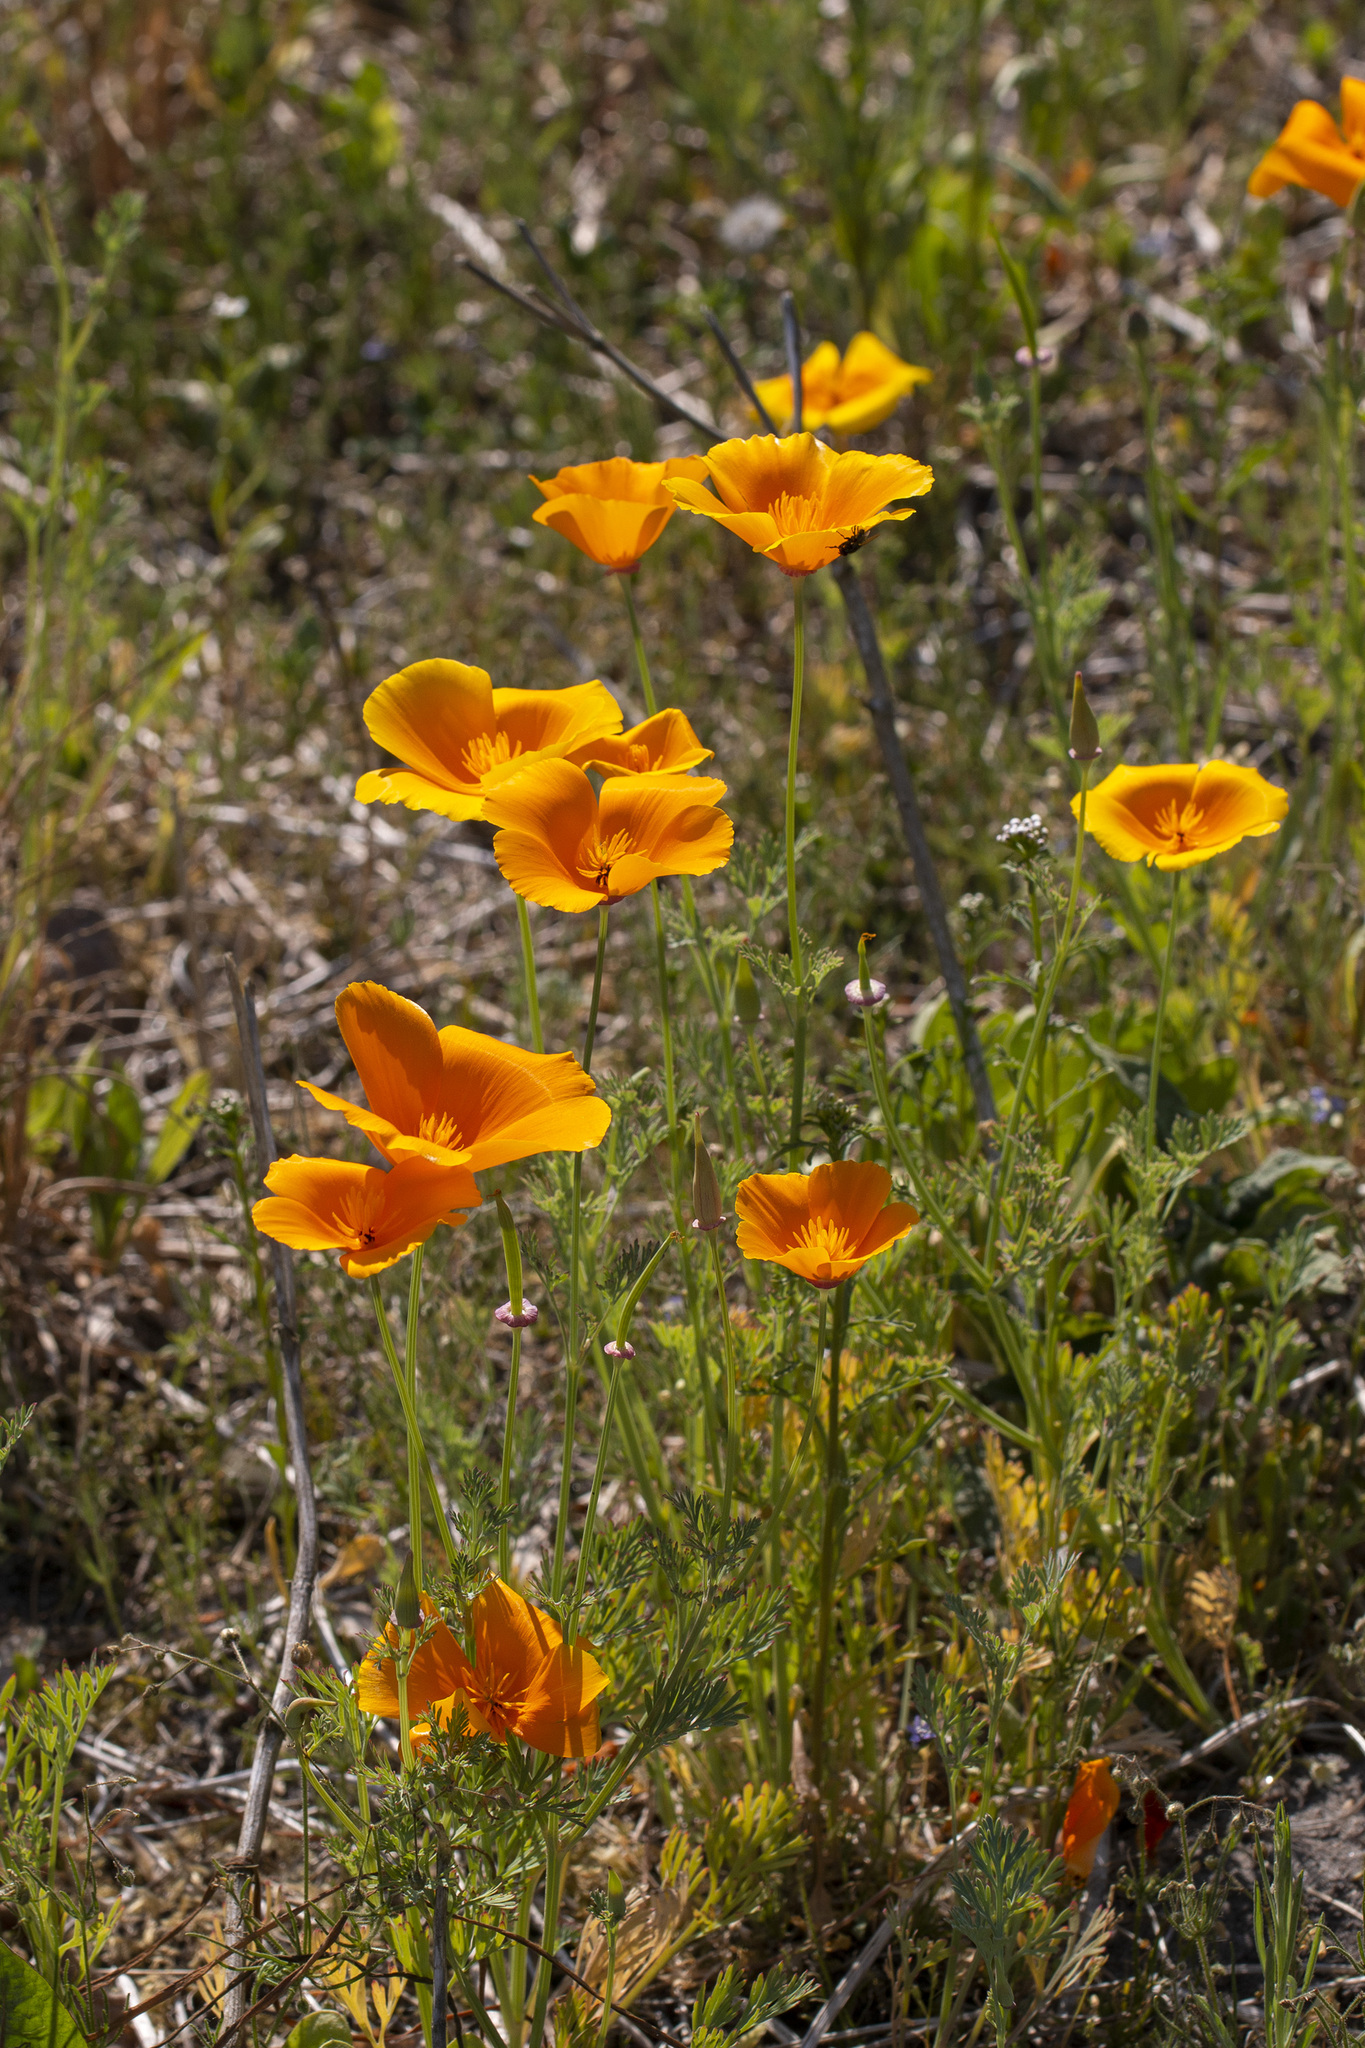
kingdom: Plantae
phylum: Tracheophyta
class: Magnoliopsida
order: Ranunculales
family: Papaveraceae
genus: Eschscholzia
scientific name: Eschscholzia californica
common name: California poppy
